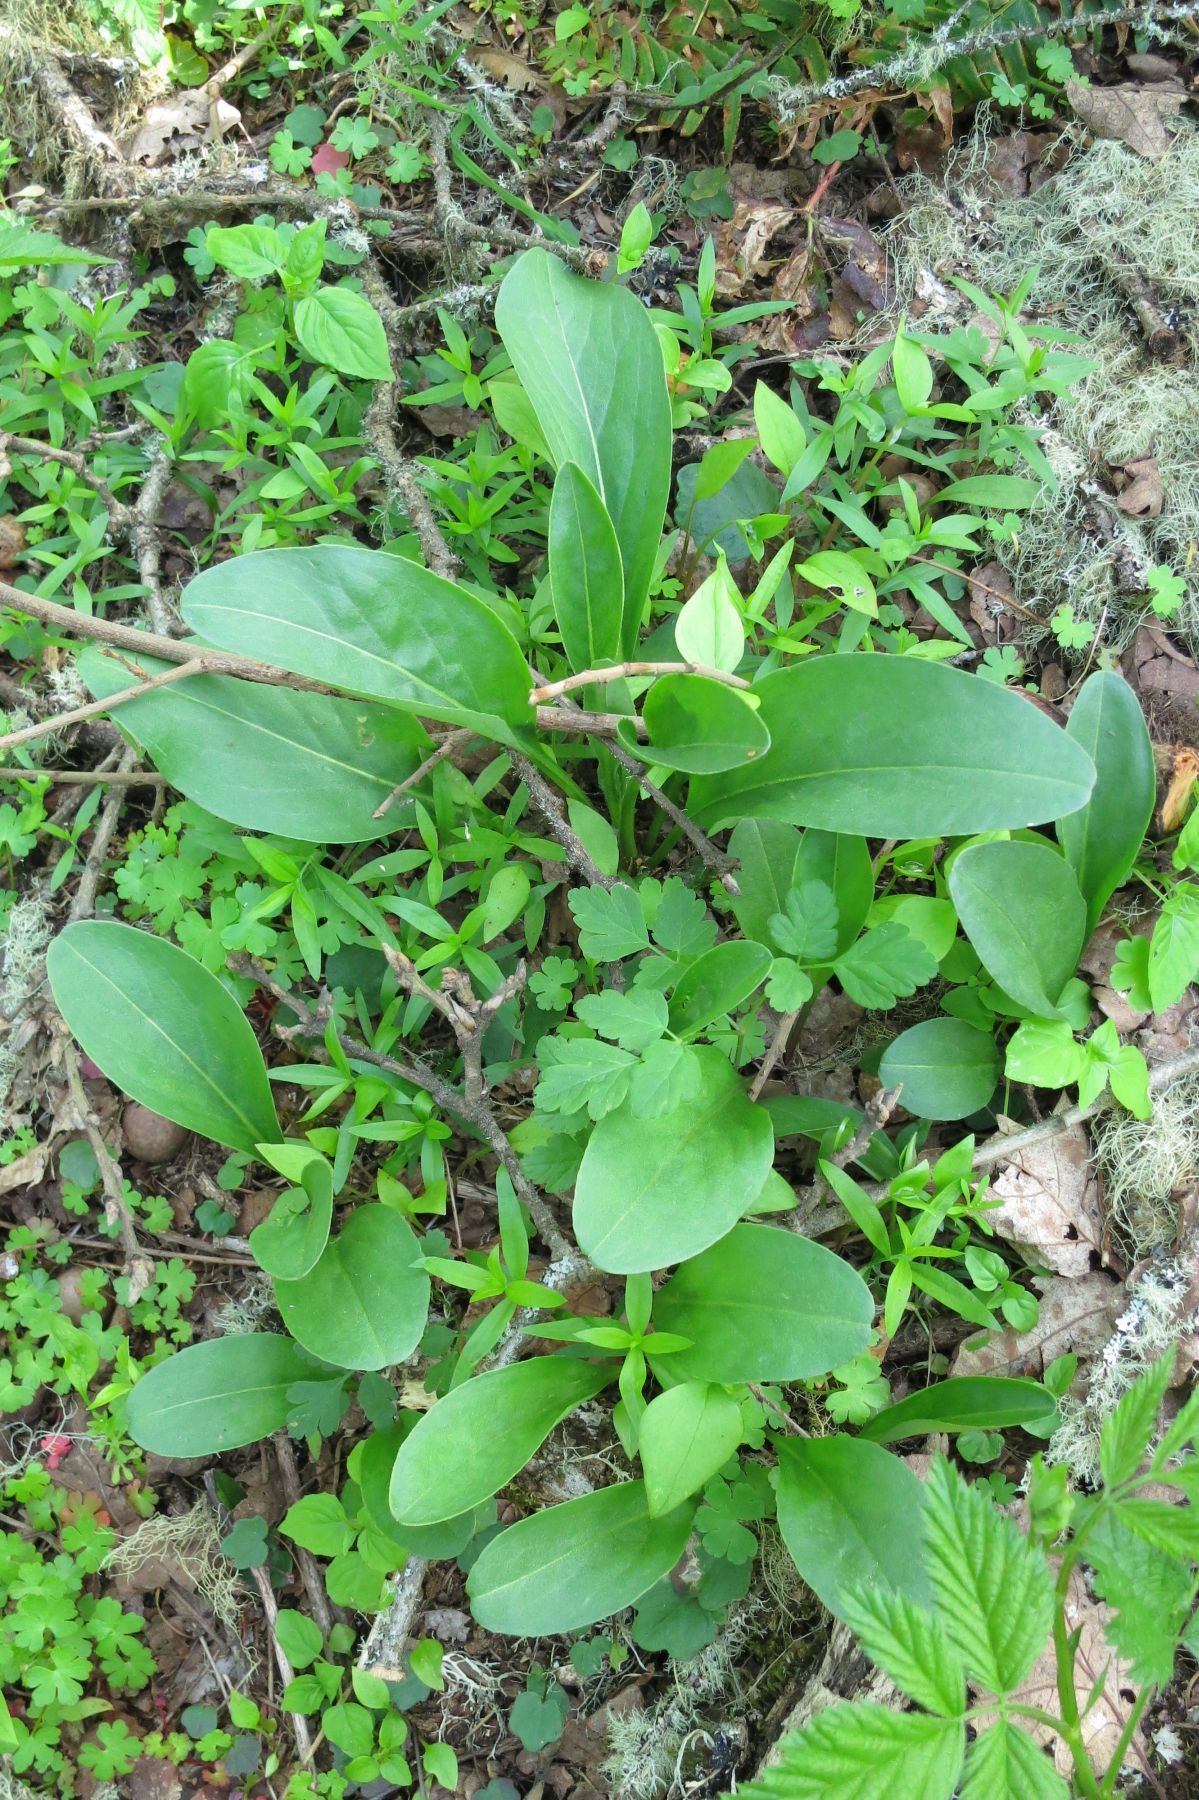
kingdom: Plantae
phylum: Tracheophyta
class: Magnoliopsida
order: Asterales
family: Asteraceae
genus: Senecio
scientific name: Senecio integerrimus
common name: Gaugeplant
